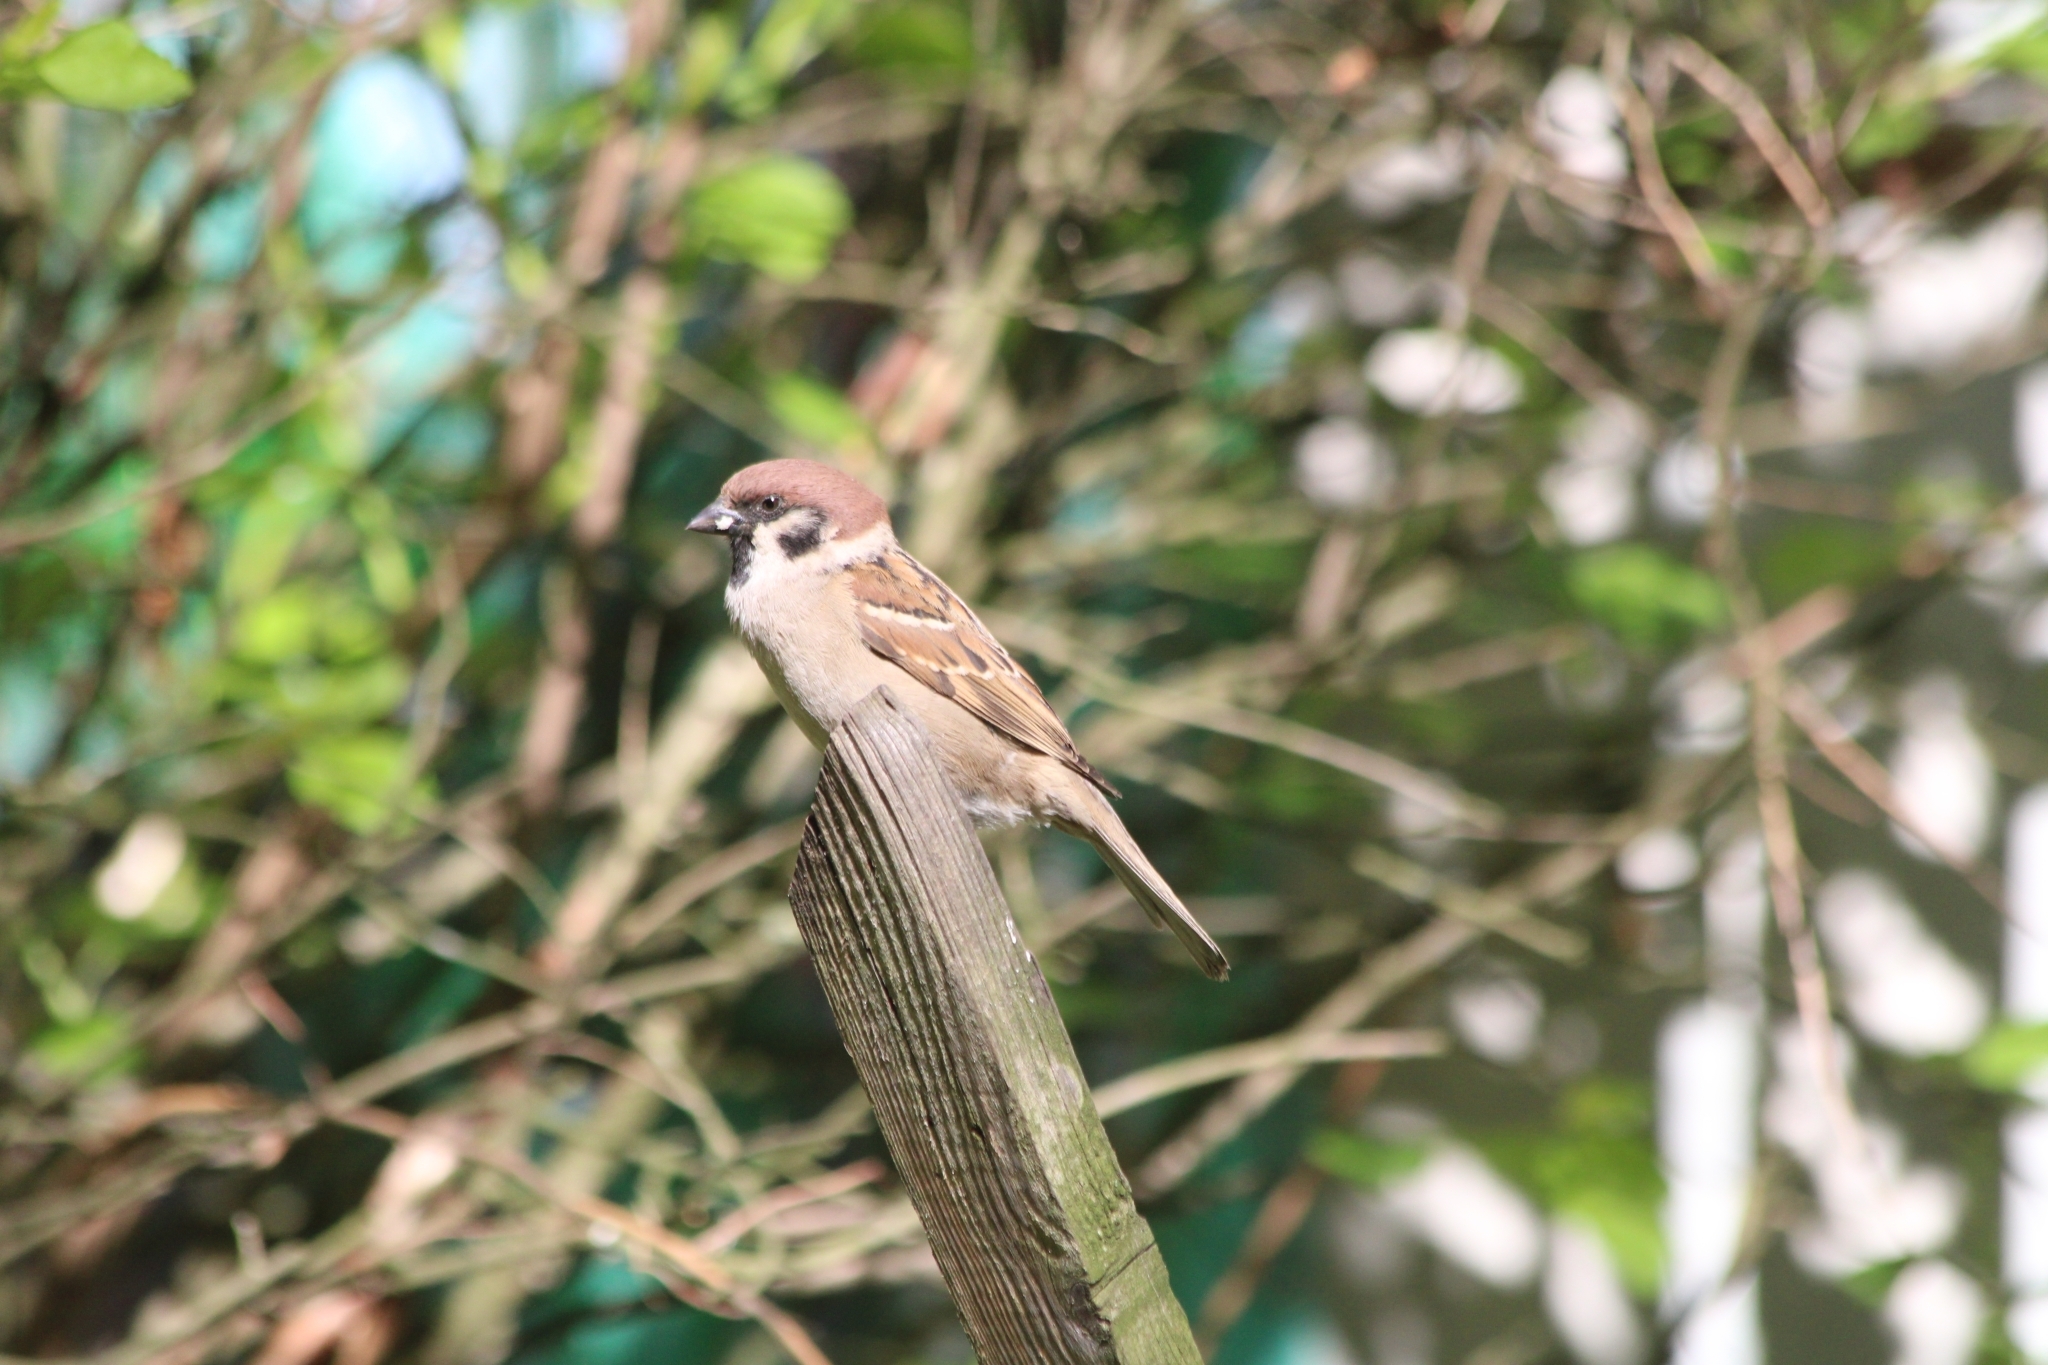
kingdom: Animalia
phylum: Chordata
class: Aves
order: Passeriformes
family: Passeridae
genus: Passer
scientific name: Passer montanus
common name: Eurasian tree sparrow
